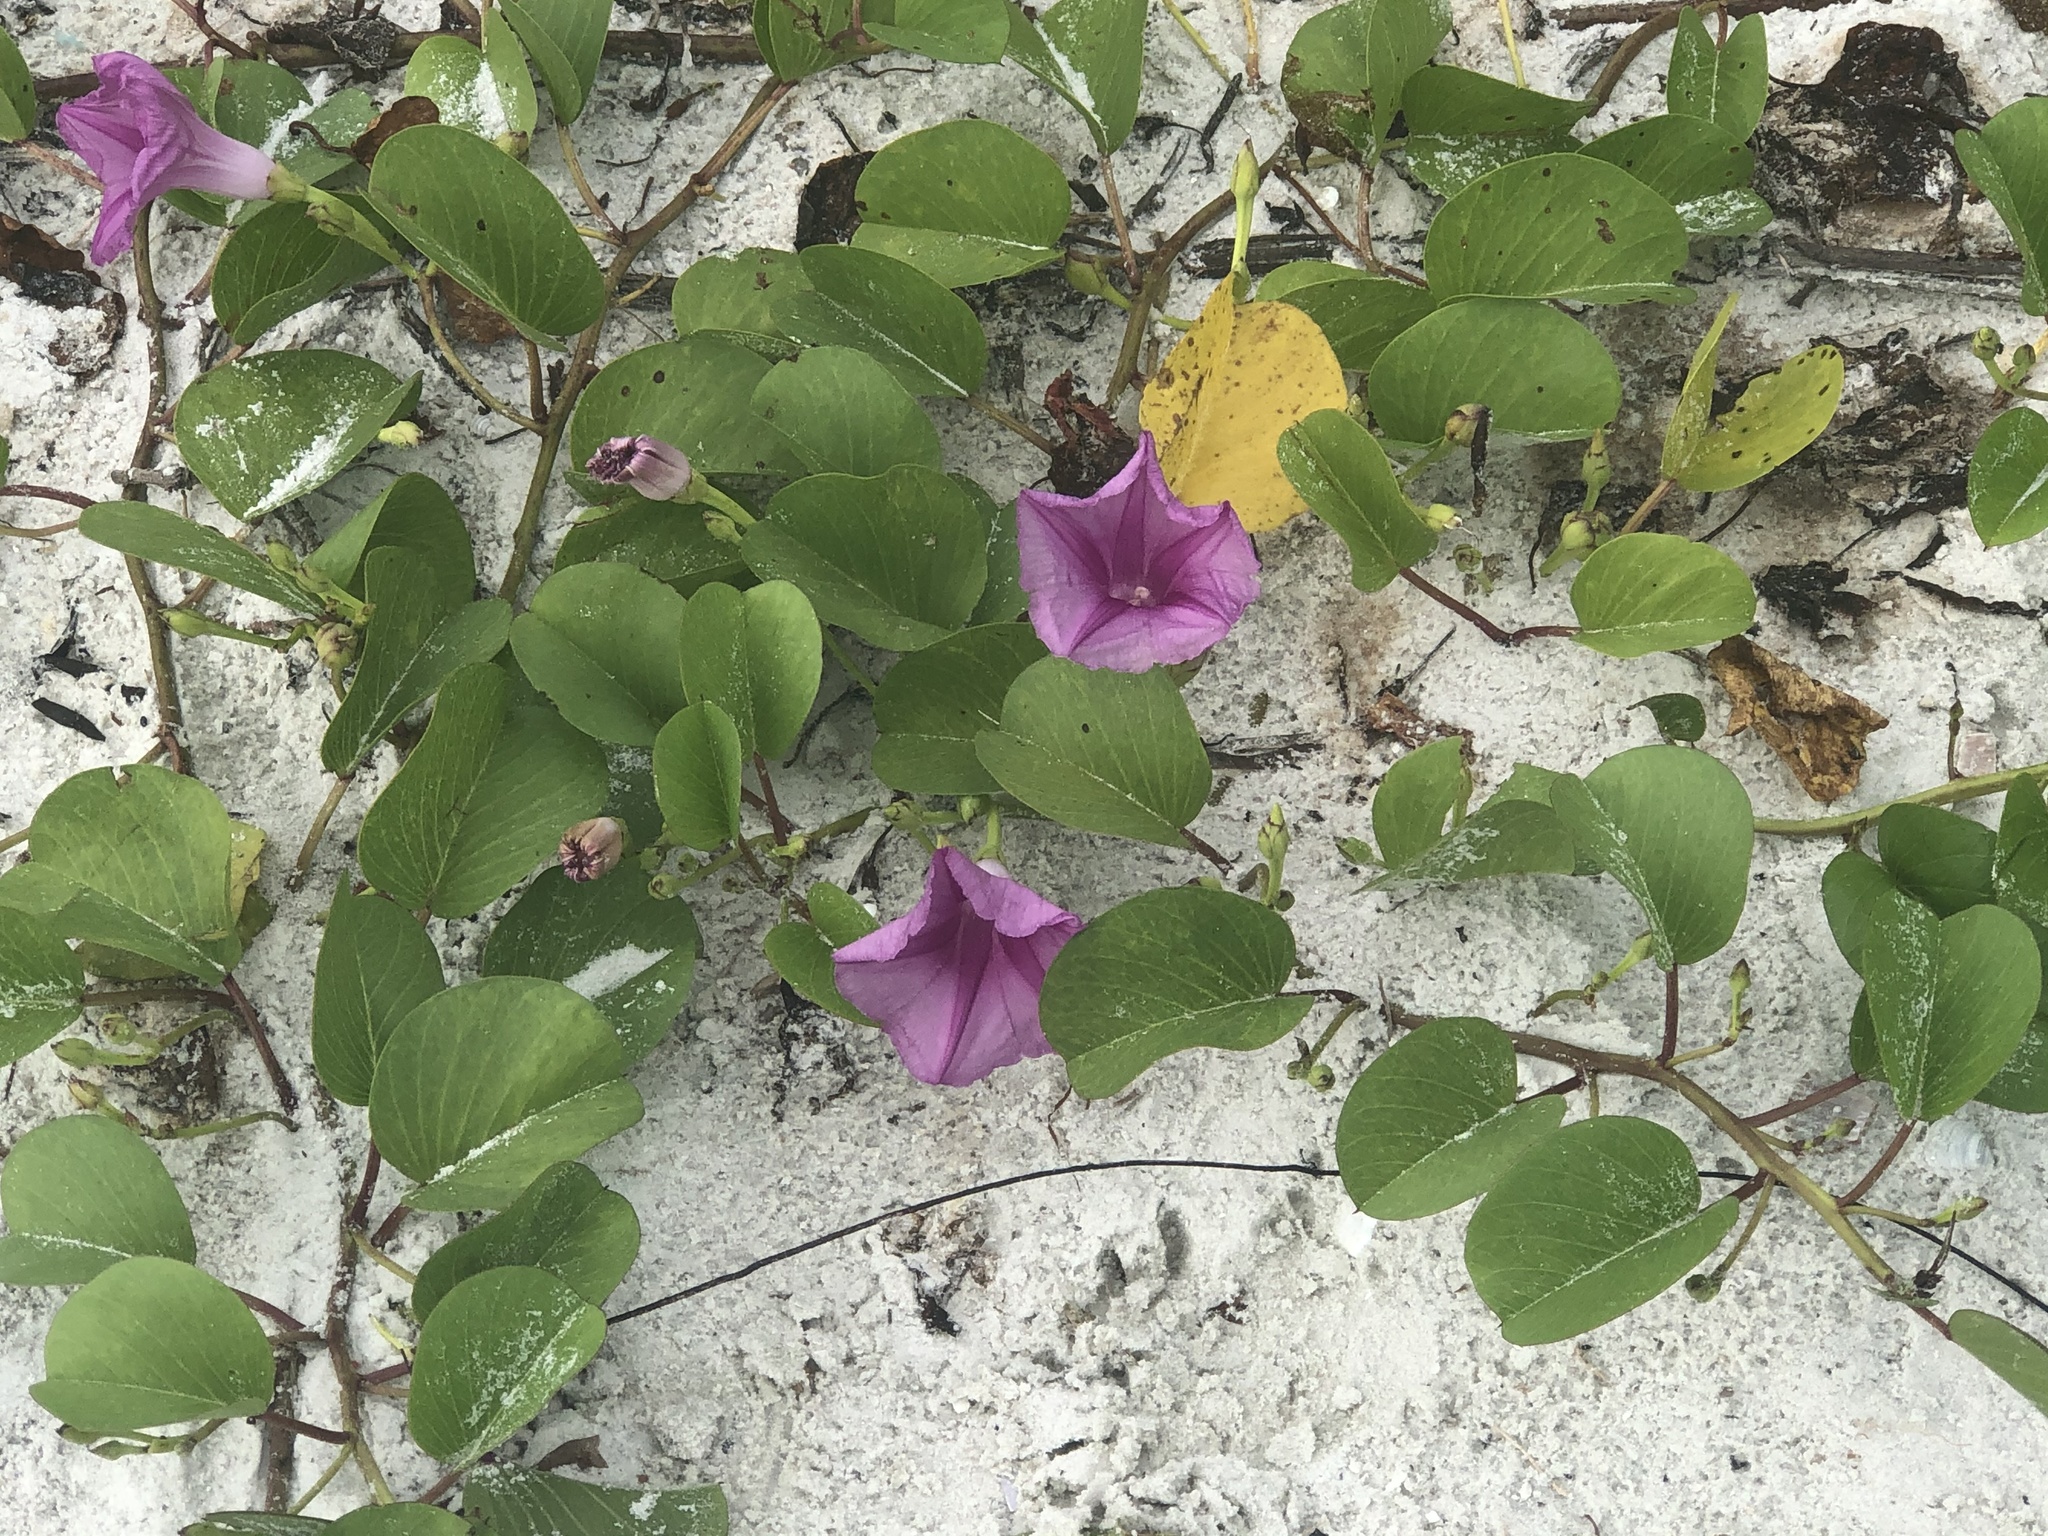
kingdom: Plantae
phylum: Tracheophyta
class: Magnoliopsida
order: Solanales
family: Convolvulaceae
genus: Ipomoea
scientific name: Ipomoea pes-caprae
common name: Beach morning glory
